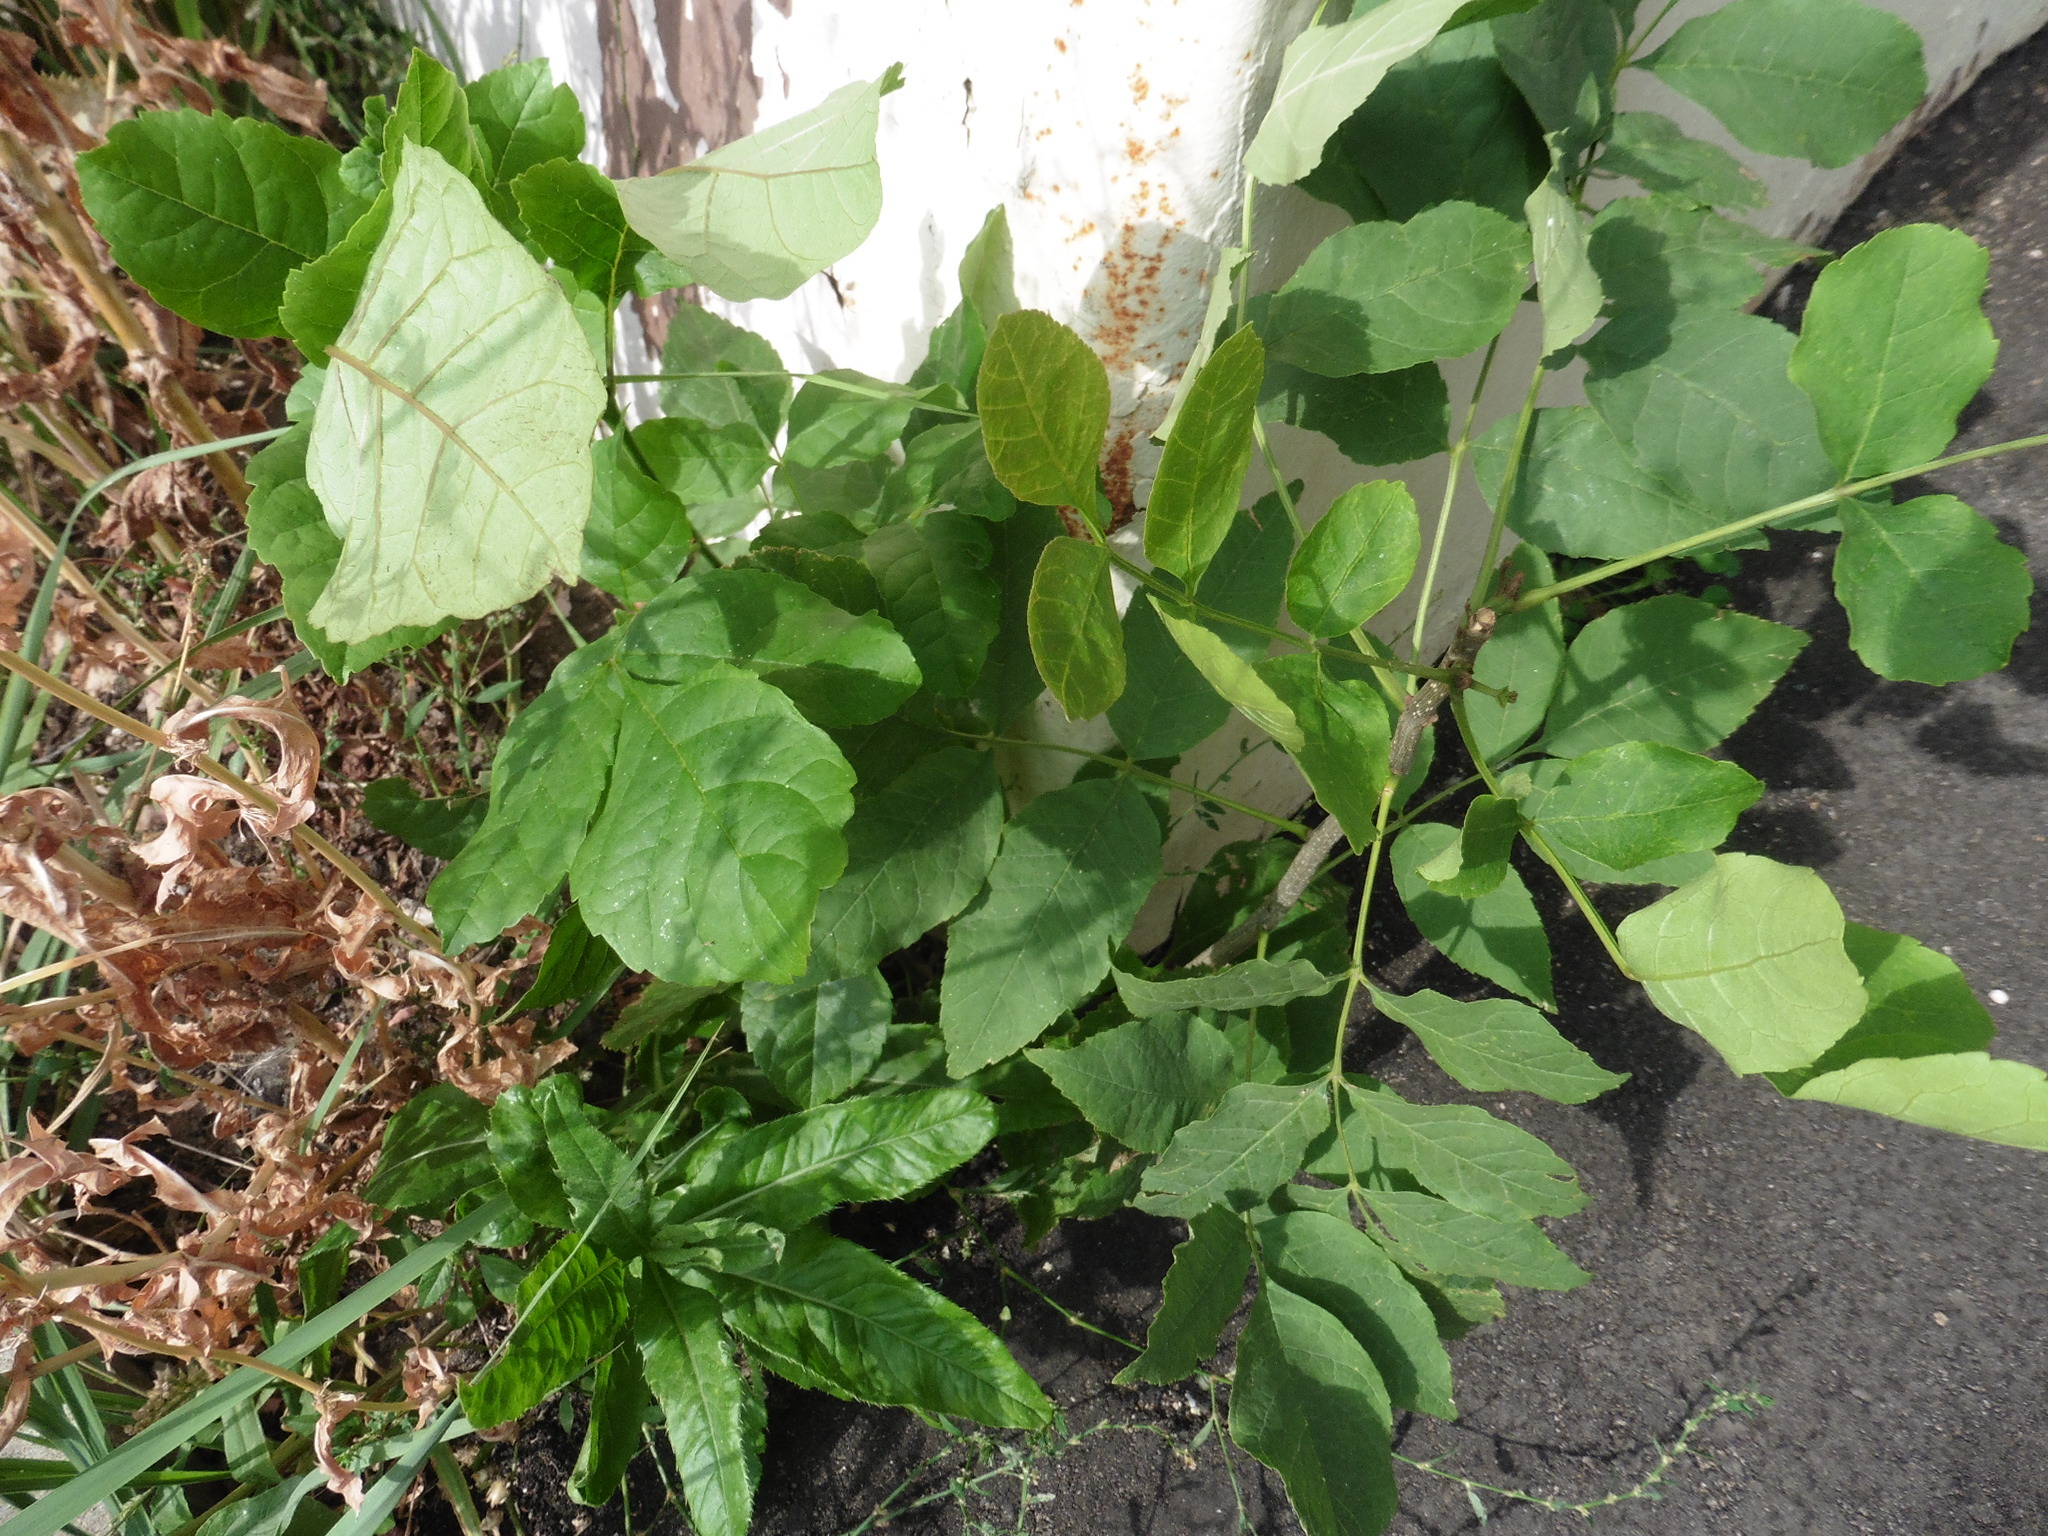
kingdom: Plantae
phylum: Tracheophyta
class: Magnoliopsida
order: Lamiales
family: Oleaceae
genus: Fraxinus
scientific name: Fraxinus pennsylvanica
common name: Green ash
